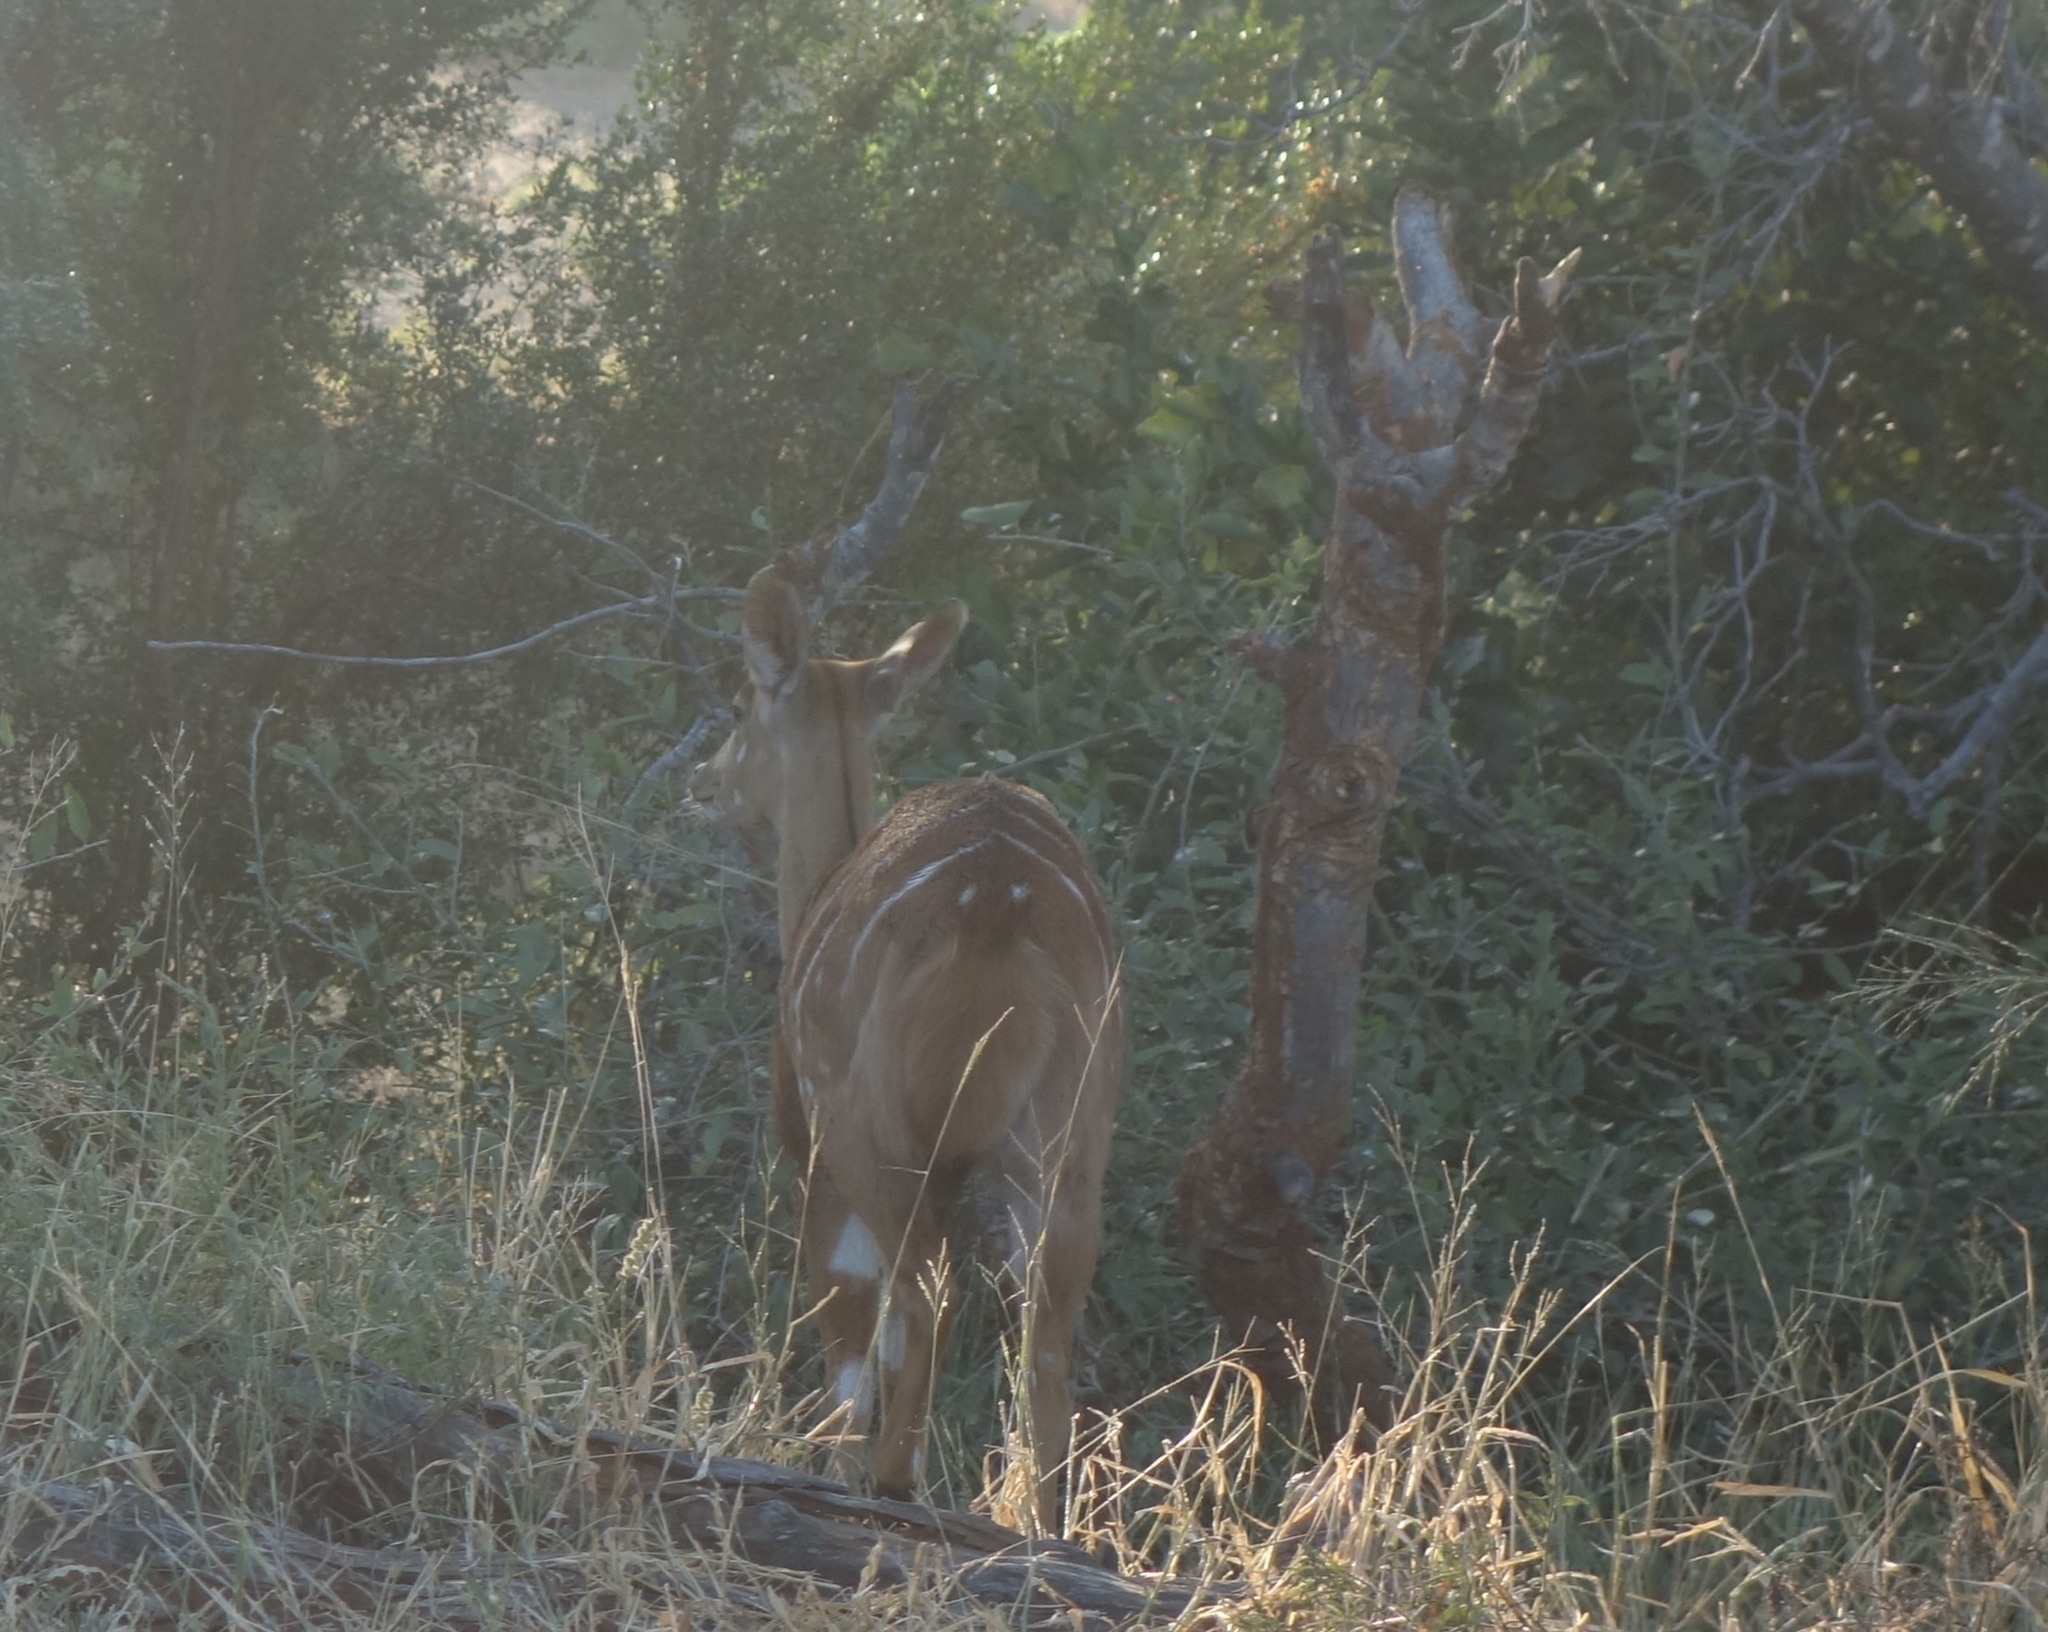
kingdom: Animalia
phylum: Chordata
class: Mammalia
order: Artiodactyla
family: Bovidae
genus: Tragelaphus
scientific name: Tragelaphus angasii
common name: Nyala
